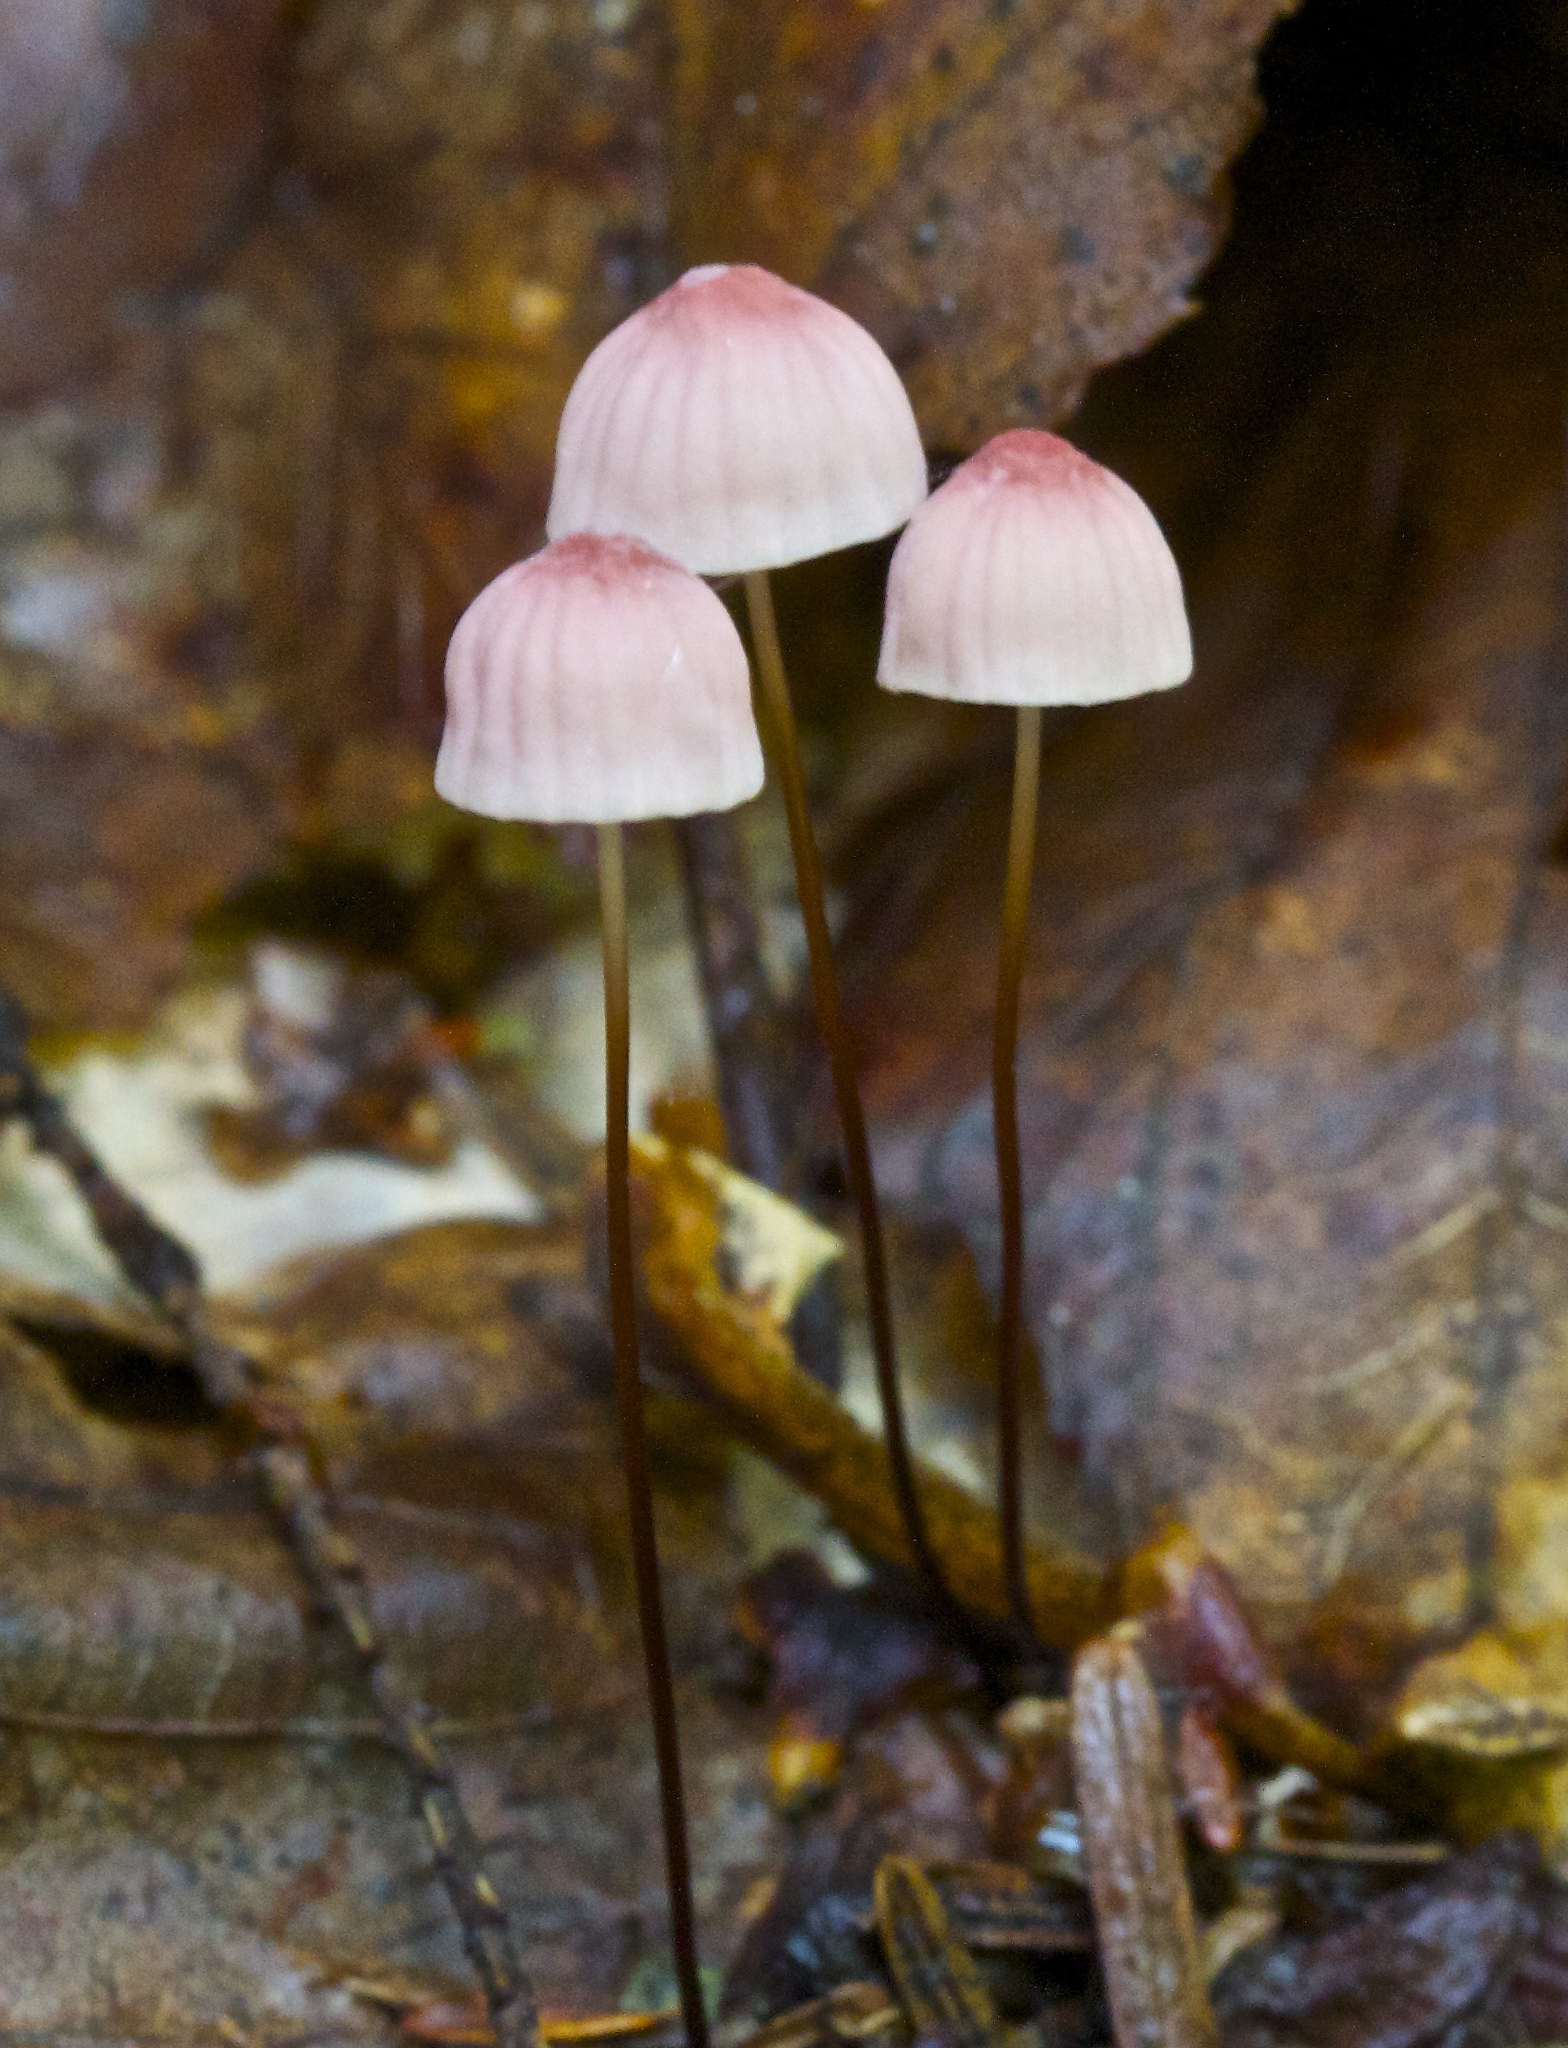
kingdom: Fungi
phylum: Basidiomycota
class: Agaricomycetes
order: Agaricales
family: Marasmiaceae
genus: Marasmius
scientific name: Marasmius bellipes
